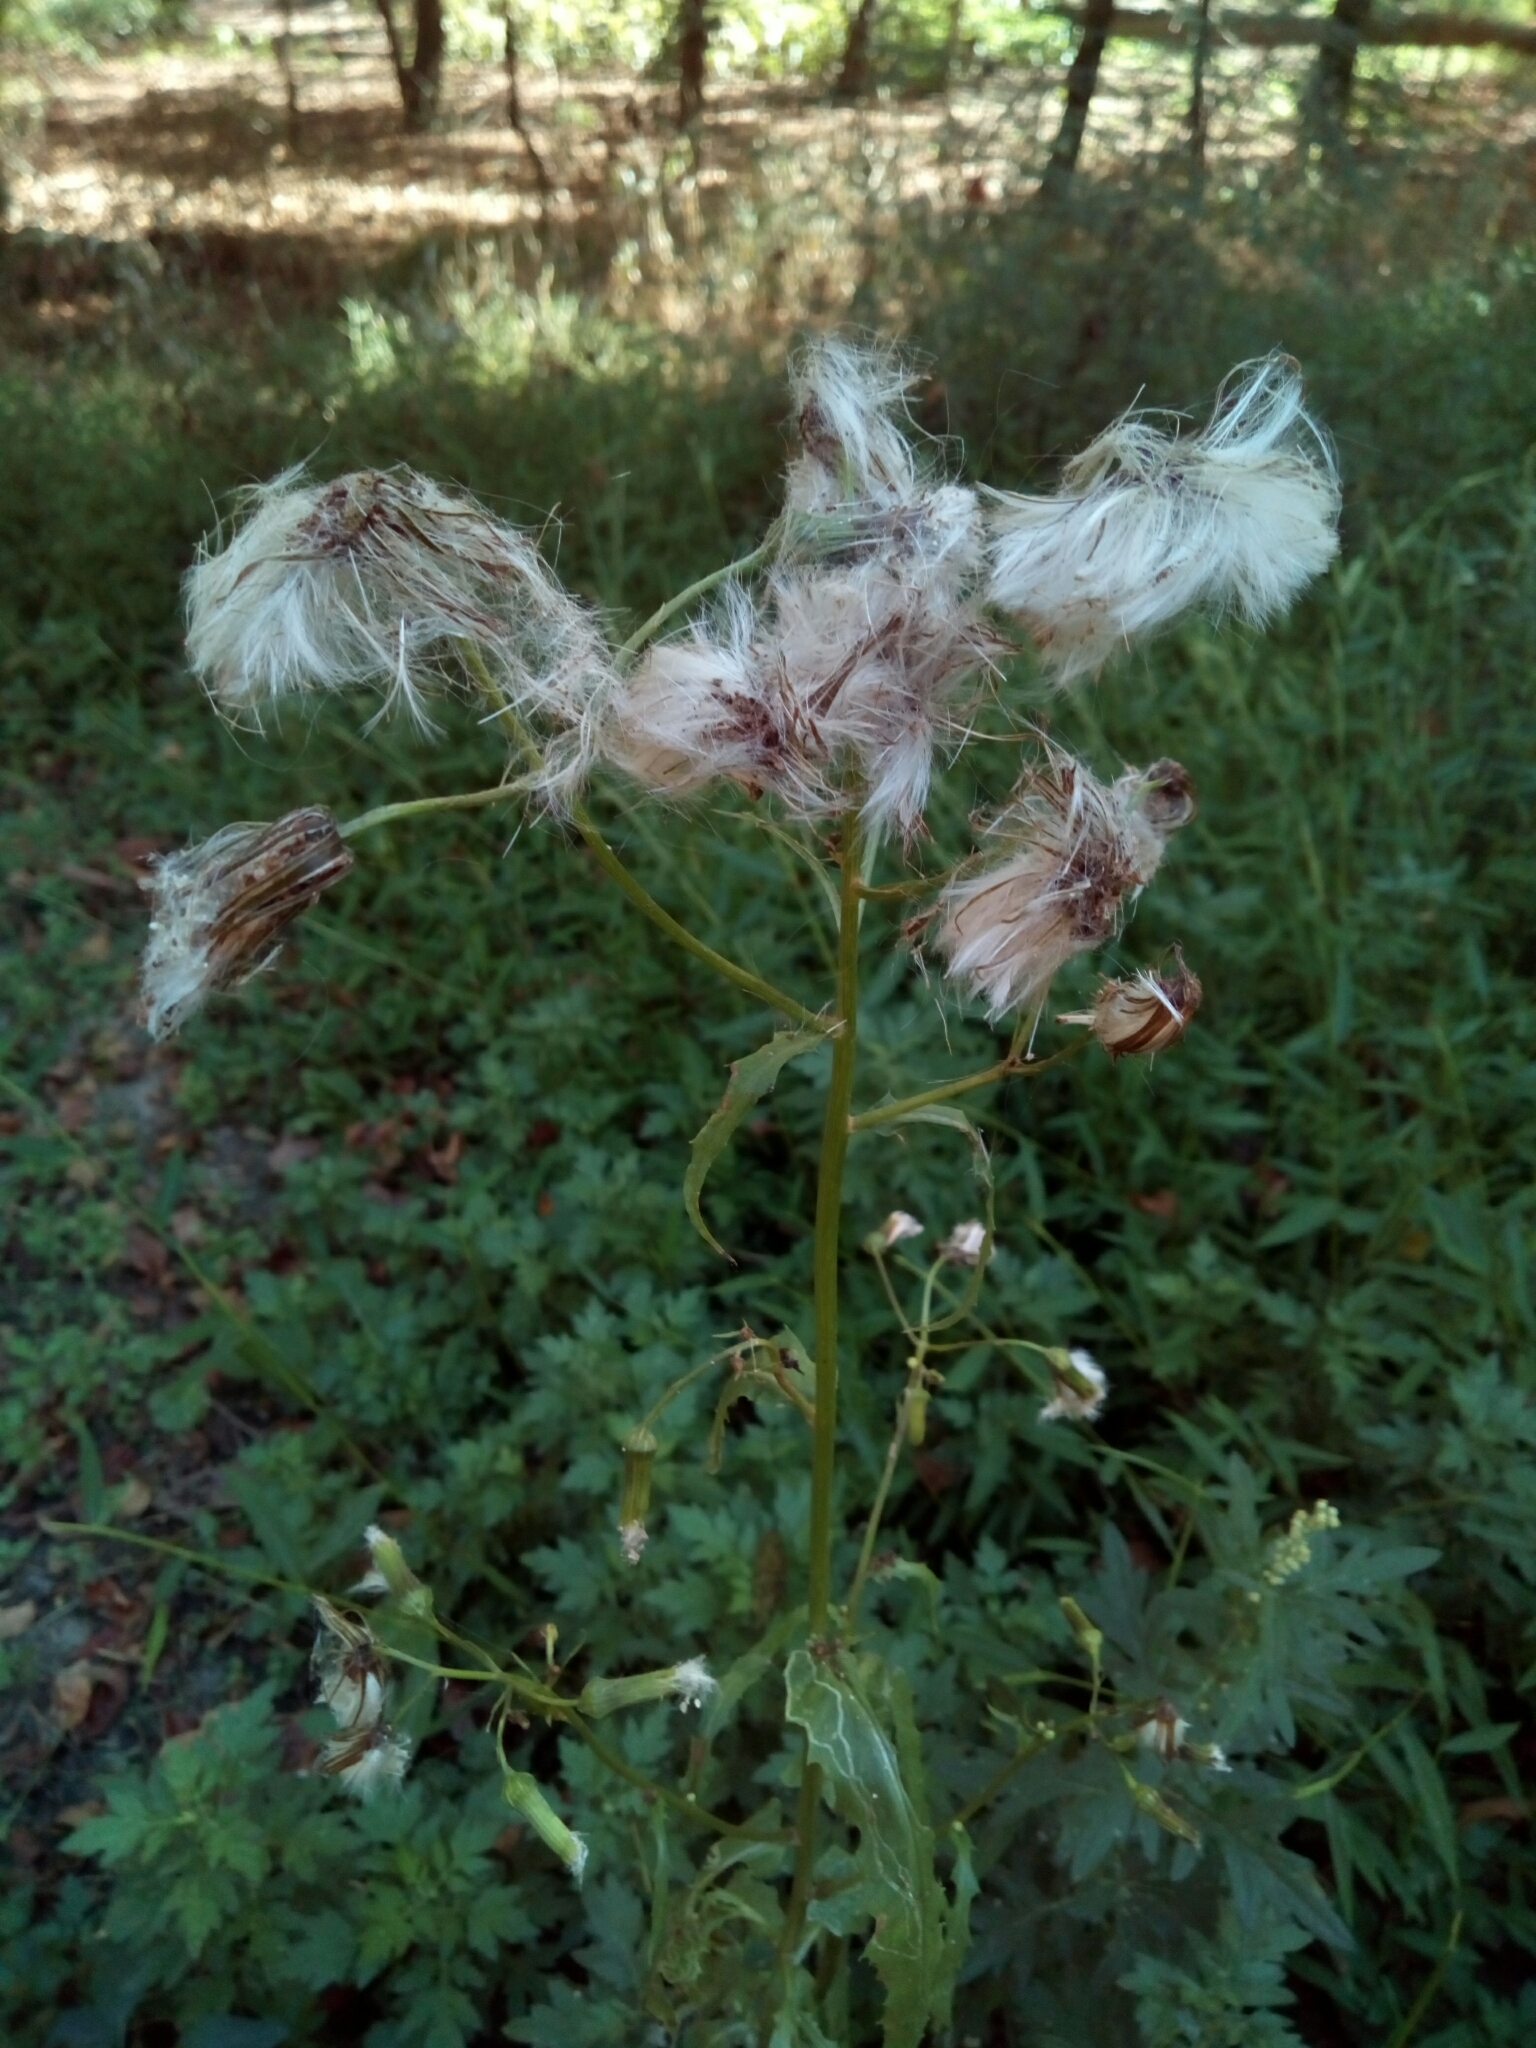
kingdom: Plantae
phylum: Tracheophyta
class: Magnoliopsida
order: Asterales
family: Asteraceae
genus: Erechtites
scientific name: Erechtites hieraciifolius
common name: American burnweed
